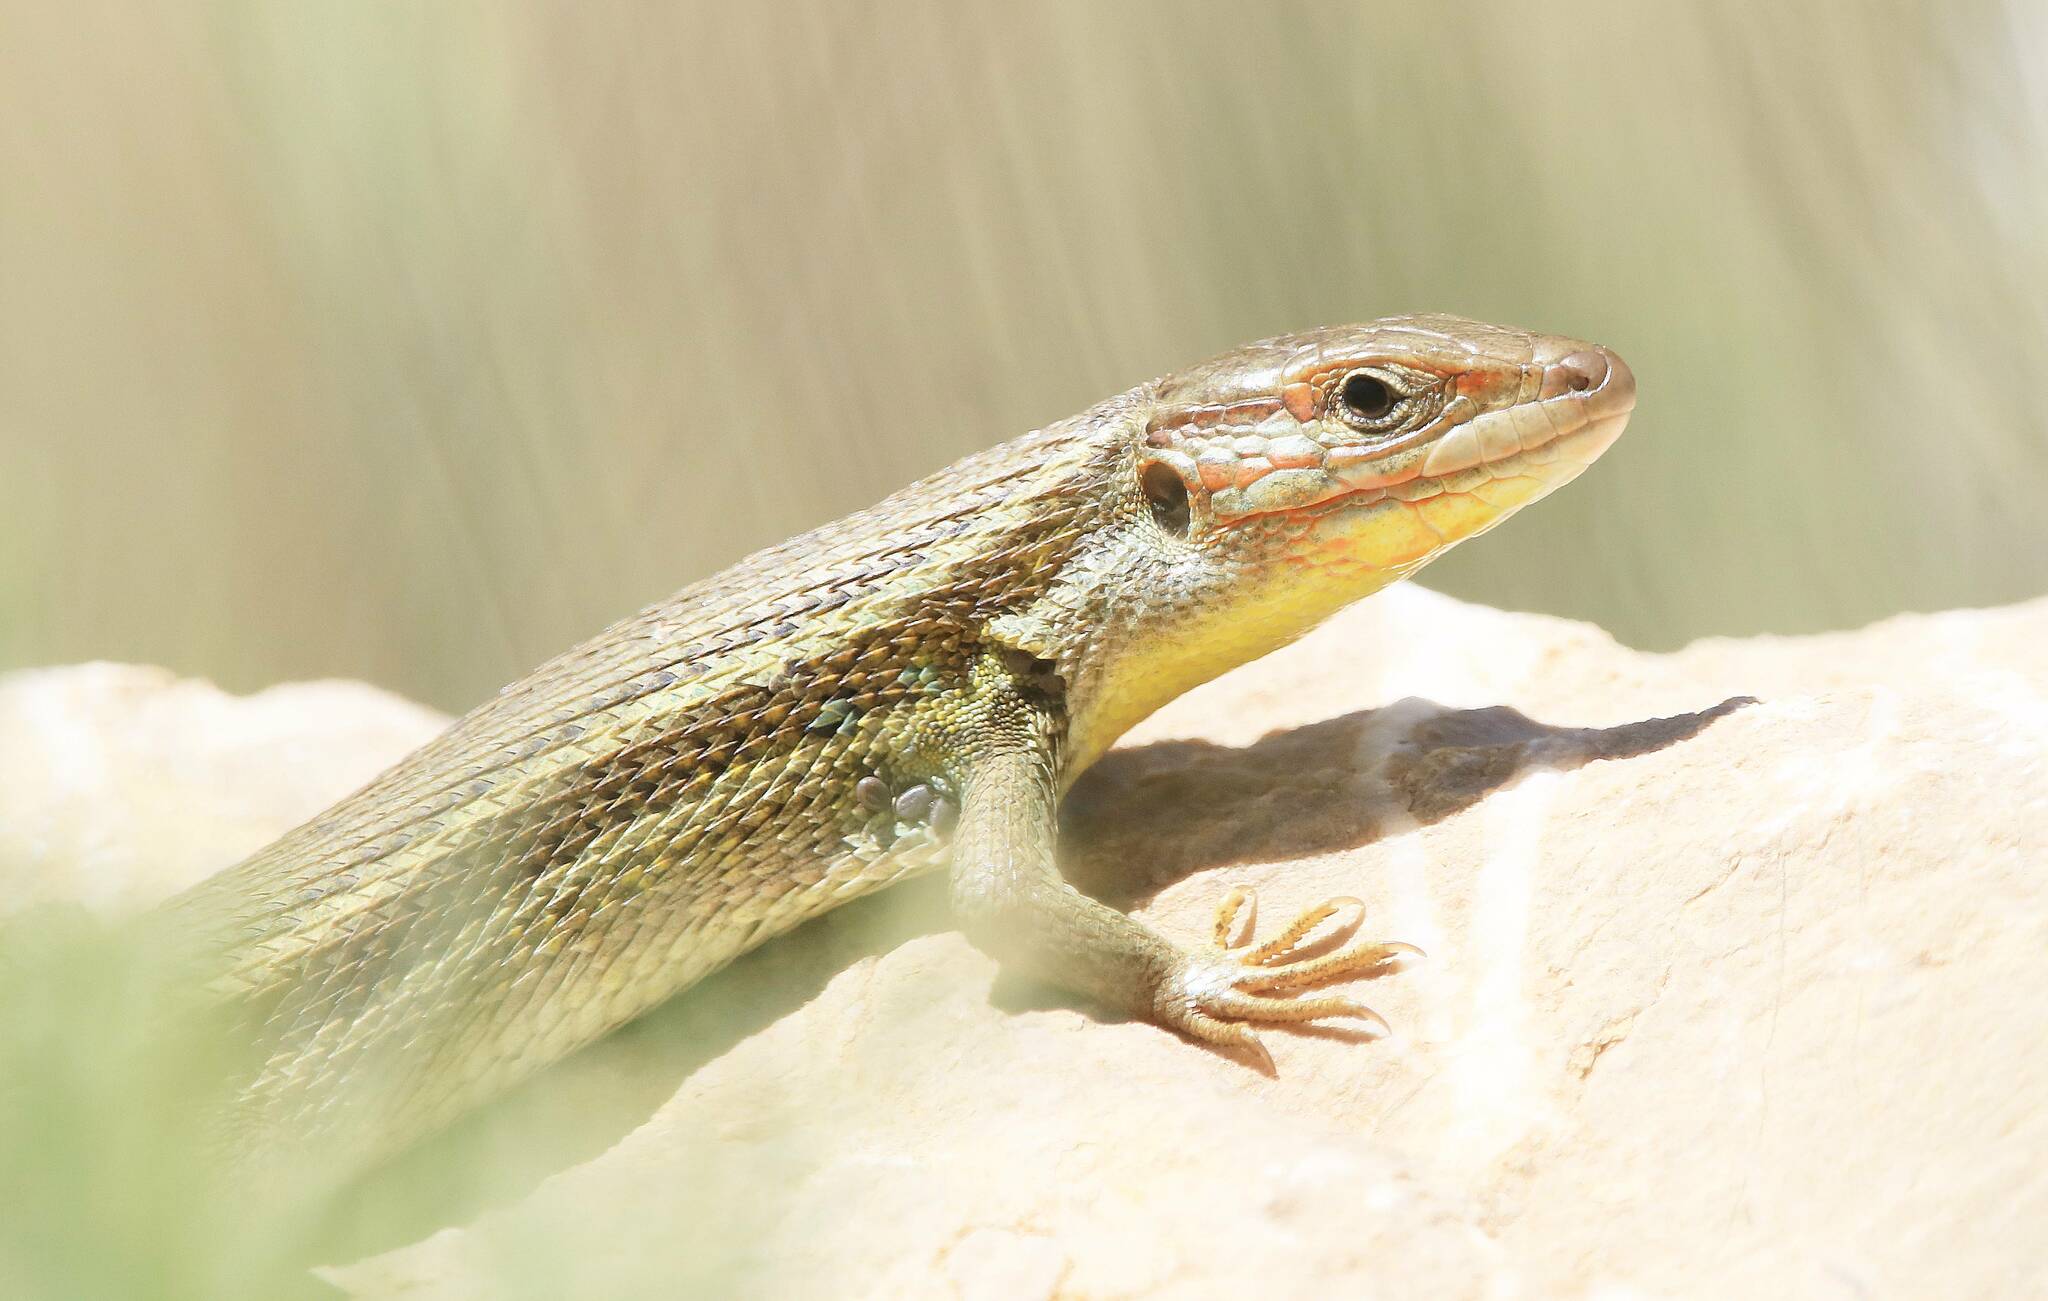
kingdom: Animalia
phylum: Chordata
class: Squamata
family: Lacertidae
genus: Psammodromus
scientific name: Psammodromus algirus
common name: Algerian psammodromus
